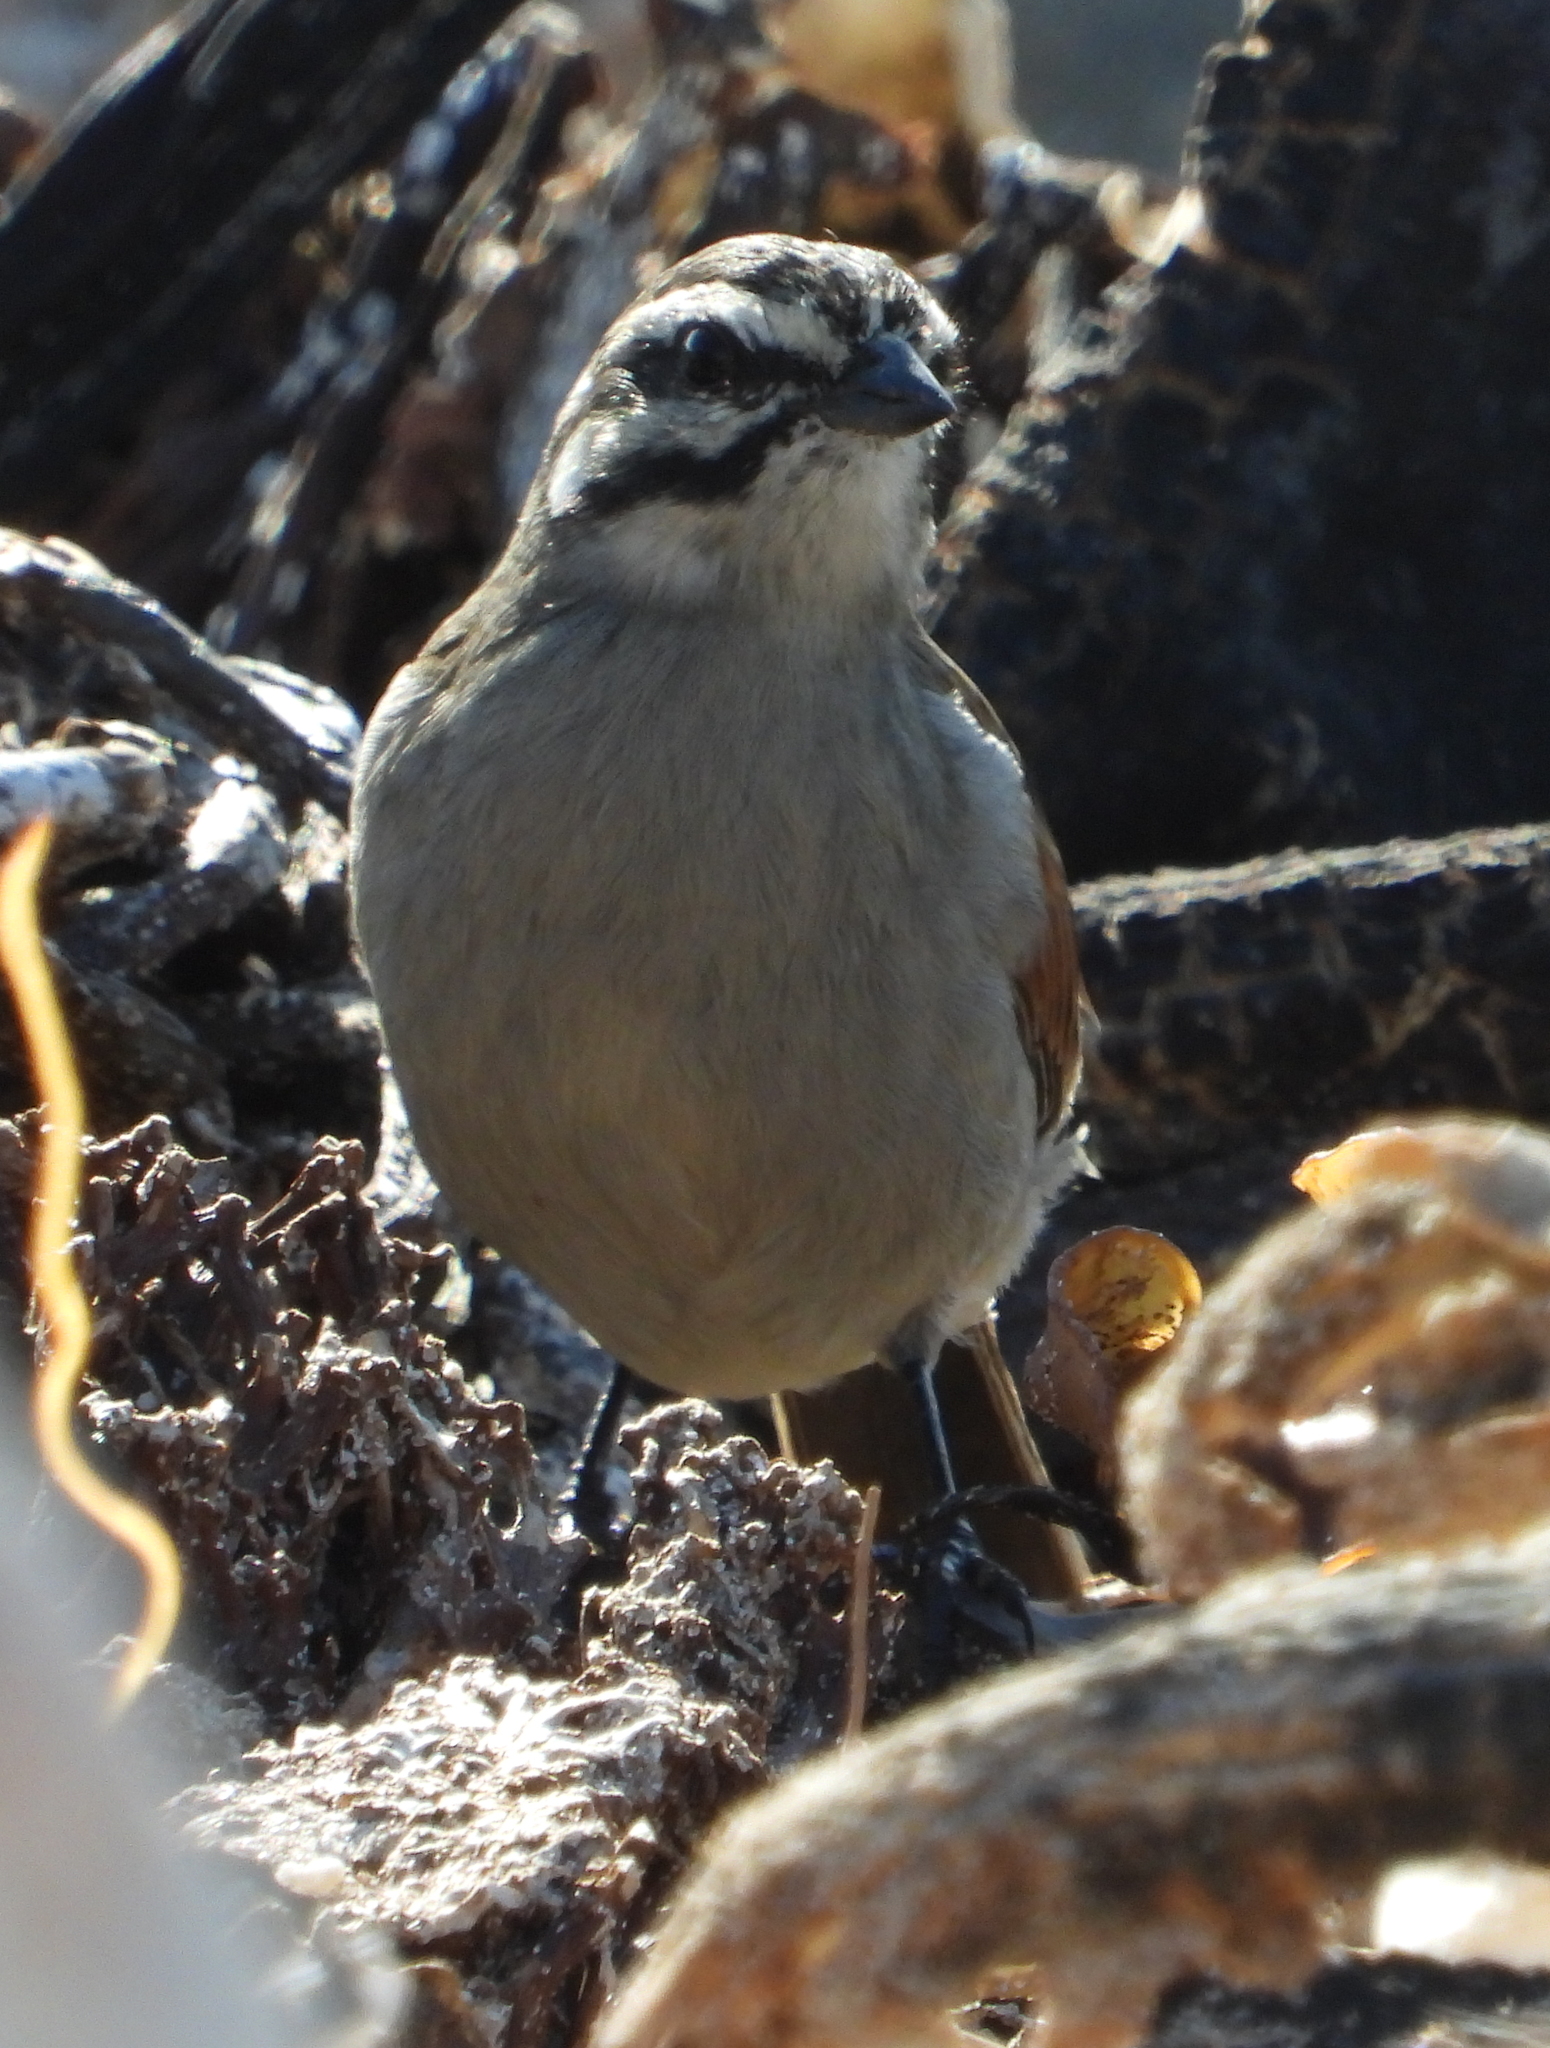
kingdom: Animalia
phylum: Chordata
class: Aves
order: Passeriformes
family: Emberizidae
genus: Emberiza
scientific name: Emberiza capensis
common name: Cape bunting
